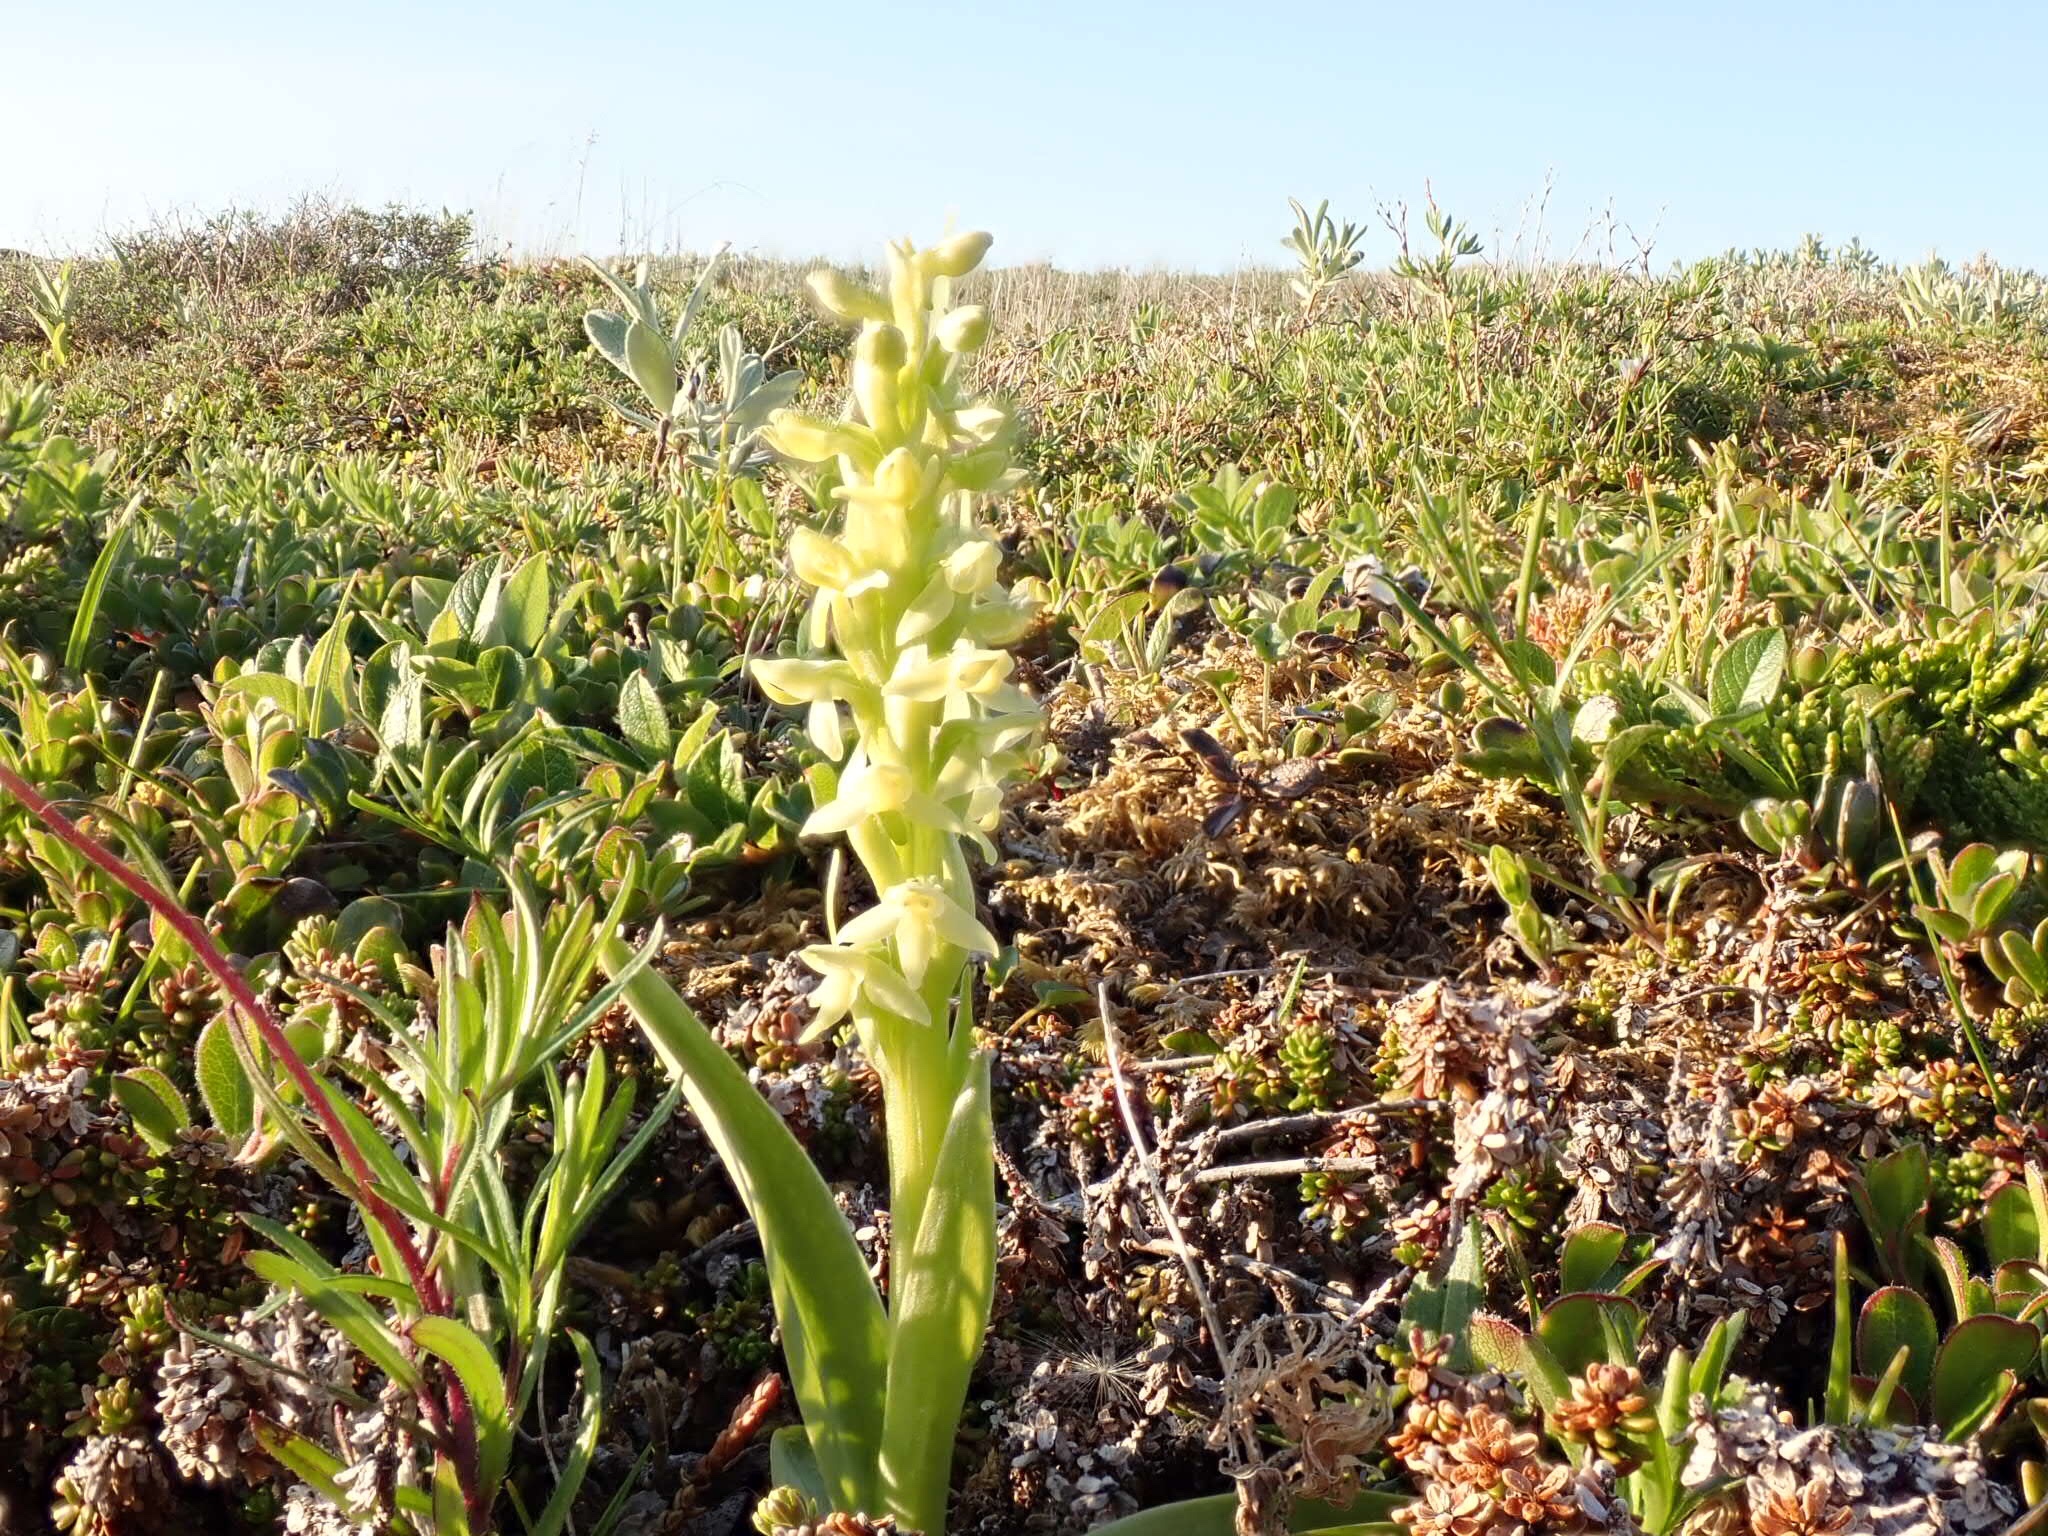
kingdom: Plantae
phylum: Tracheophyta
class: Liliopsida
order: Asparagales
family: Orchidaceae
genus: Platanthera
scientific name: Platanthera aquilonis
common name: Northern green orchid
